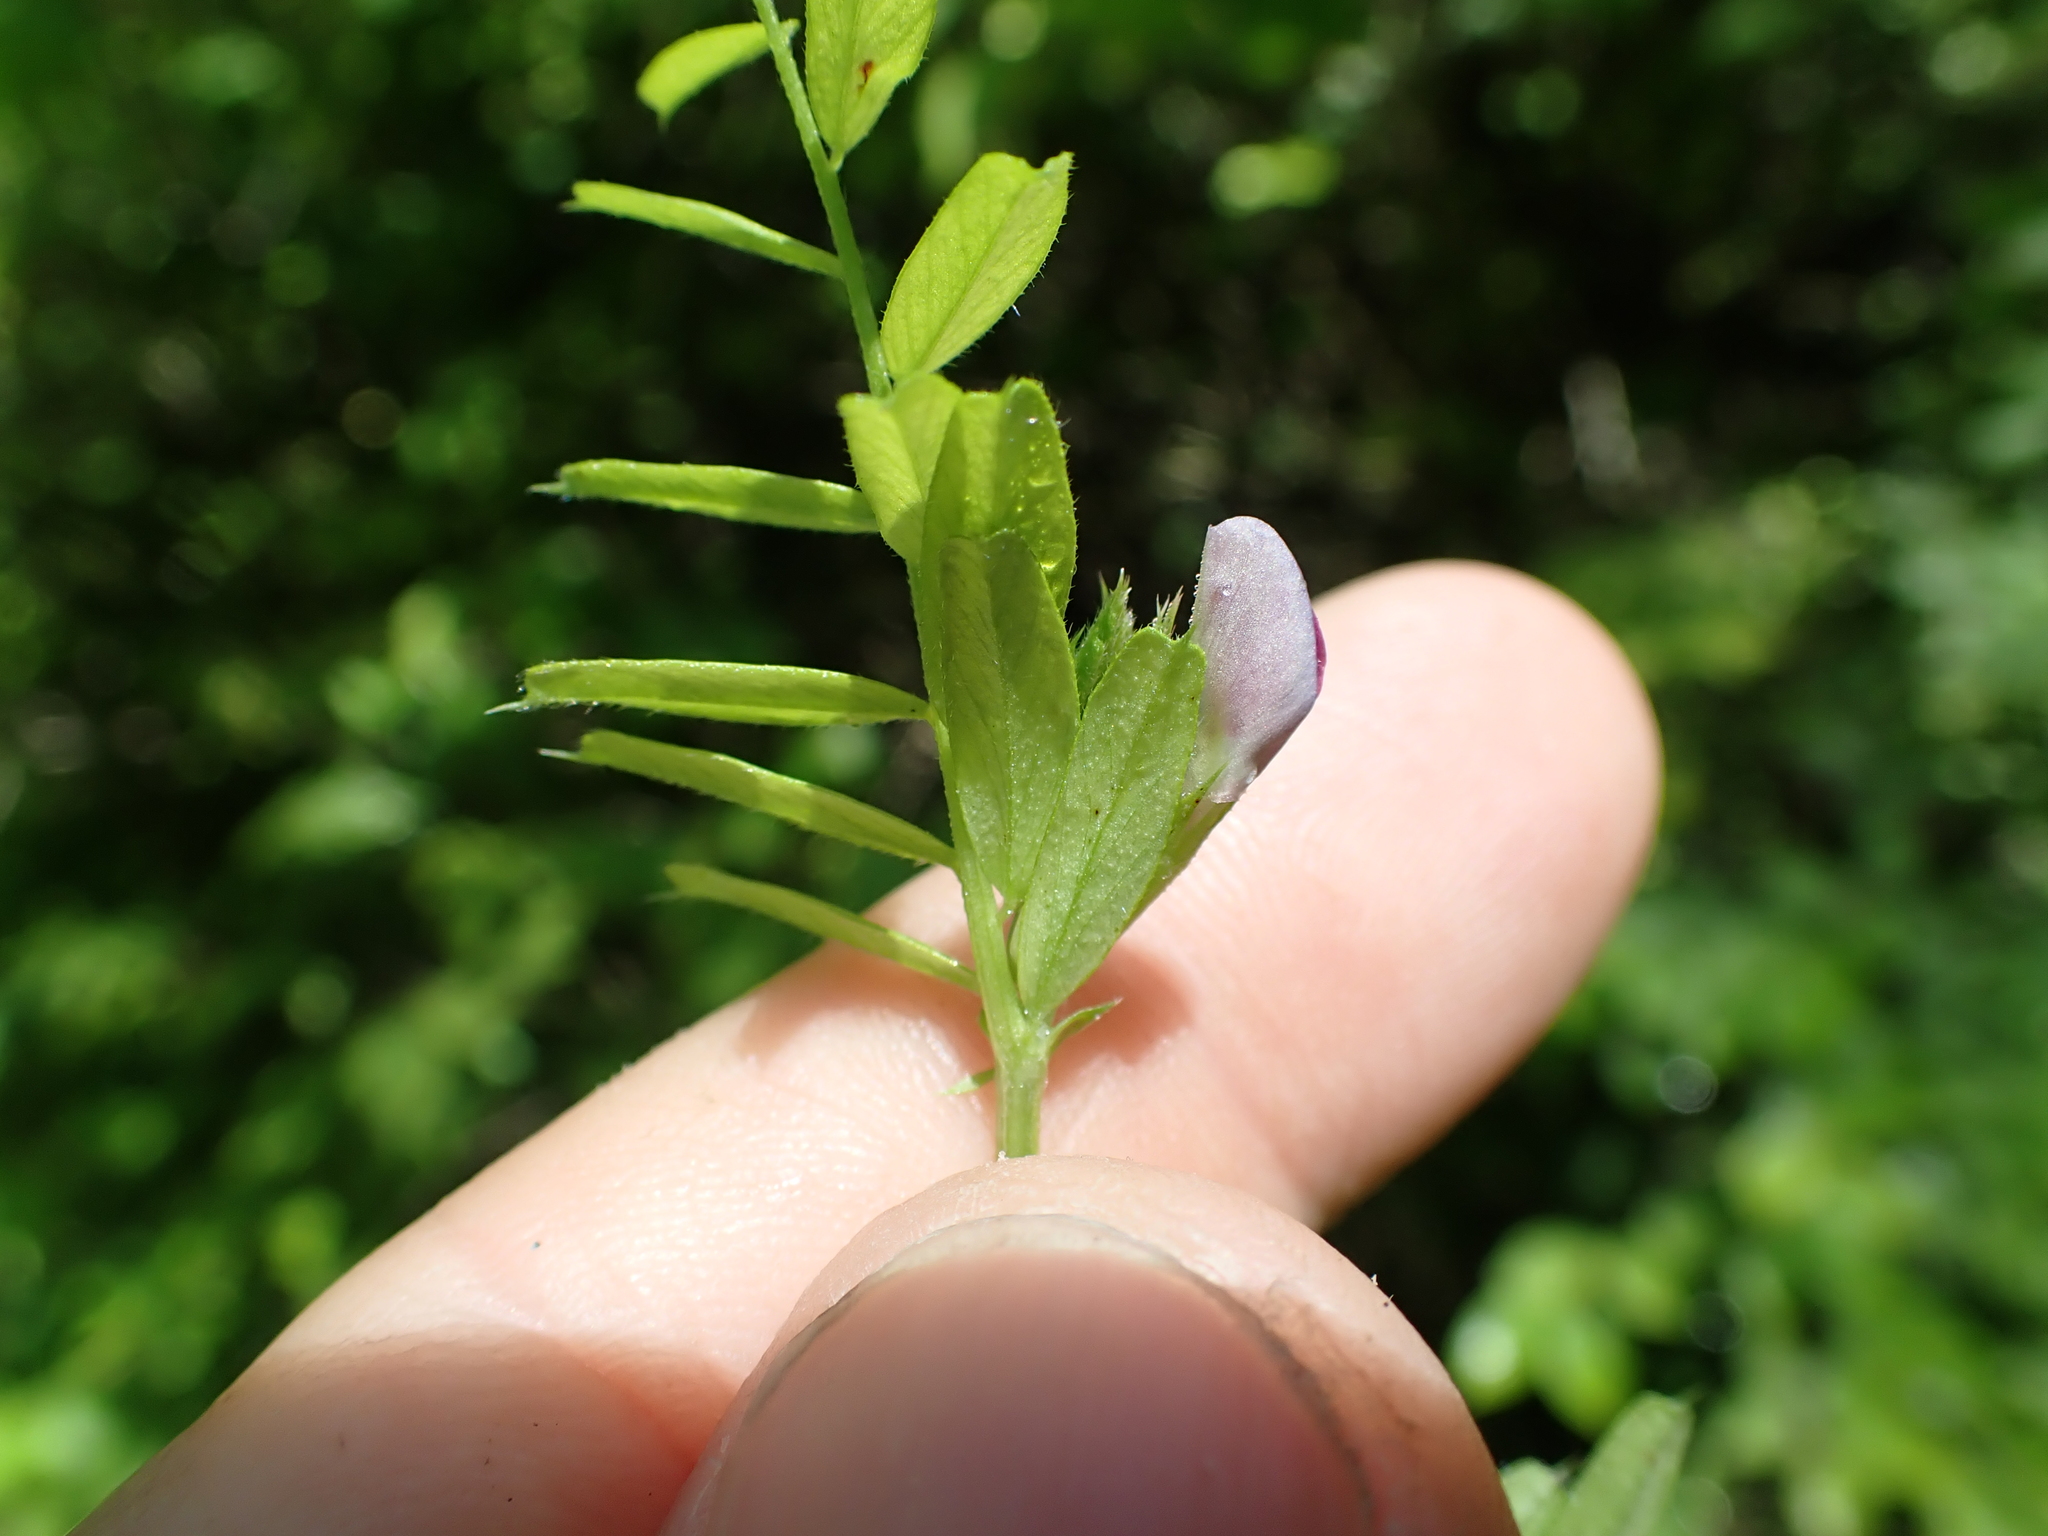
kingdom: Plantae
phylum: Tracheophyta
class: Magnoliopsida
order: Fabales
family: Fabaceae
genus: Vicia
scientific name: Vicia sativa
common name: Garden vetch
